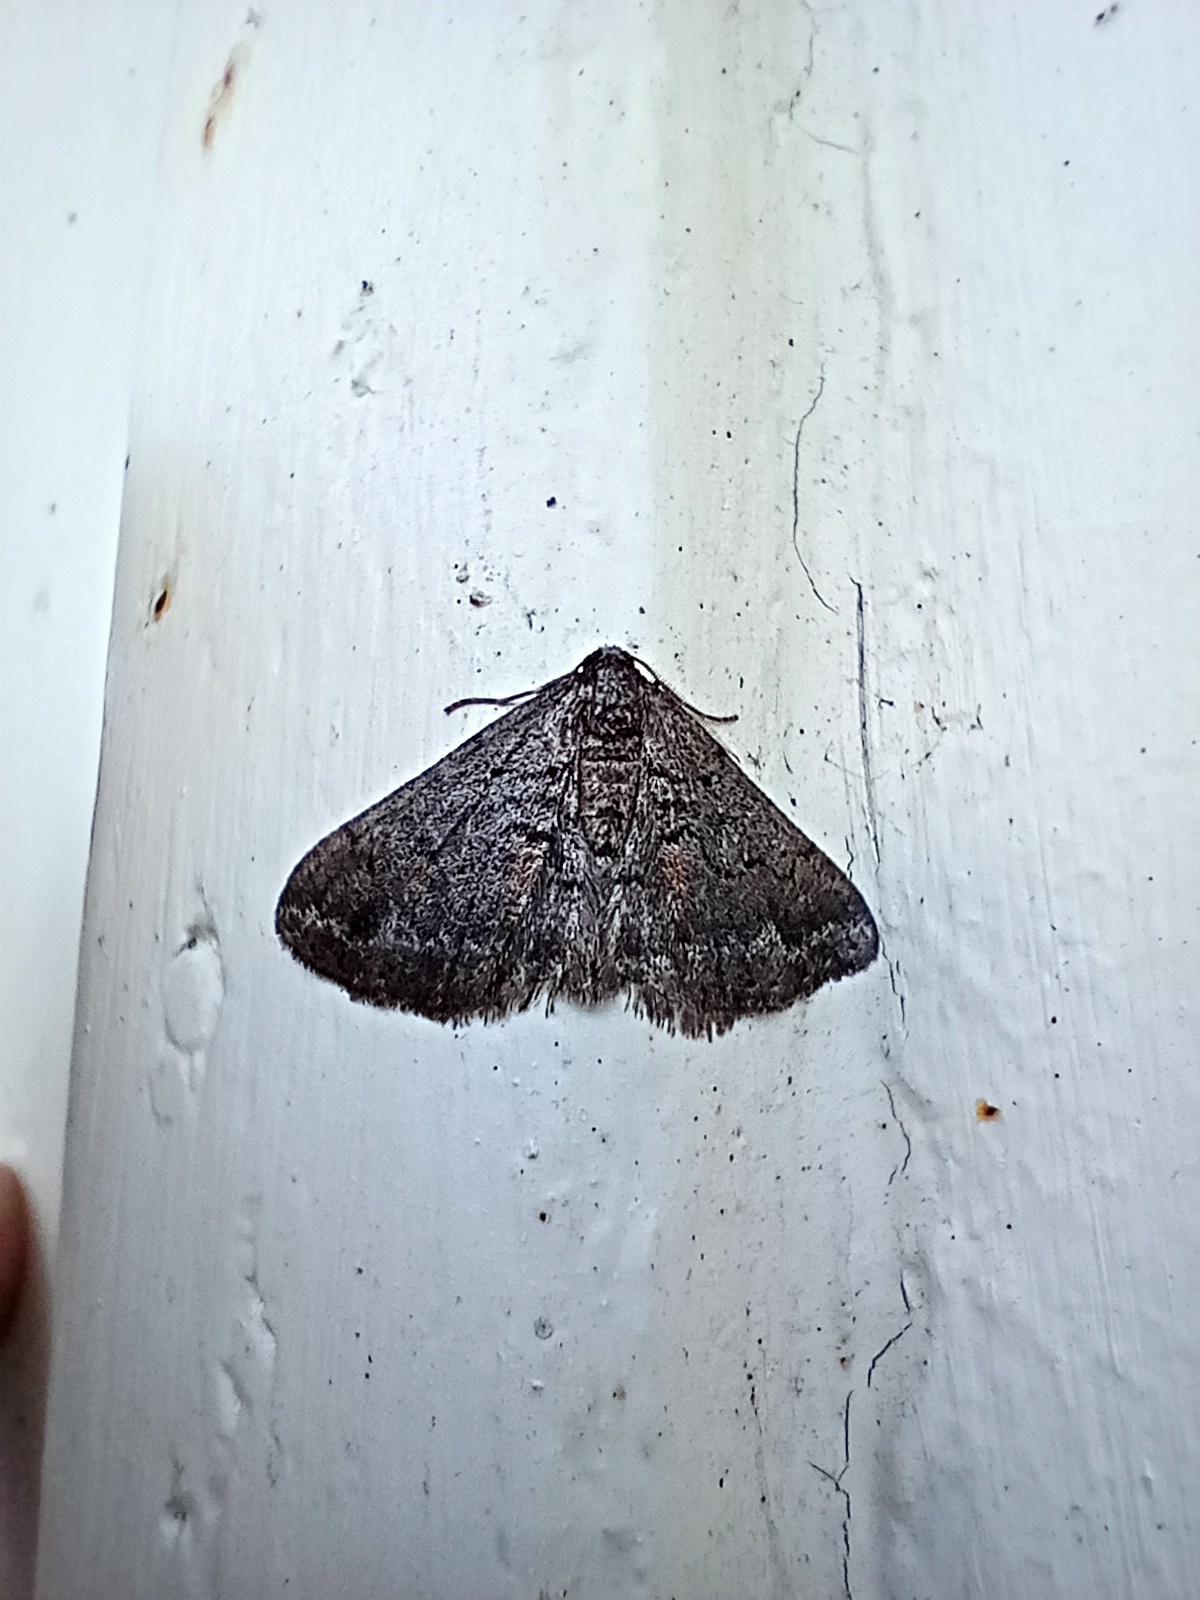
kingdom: Animalia
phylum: Arthropoda
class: Insecta
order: Lepidoptera
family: Geometridae
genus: Agriopis
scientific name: Agriopis bajaria
